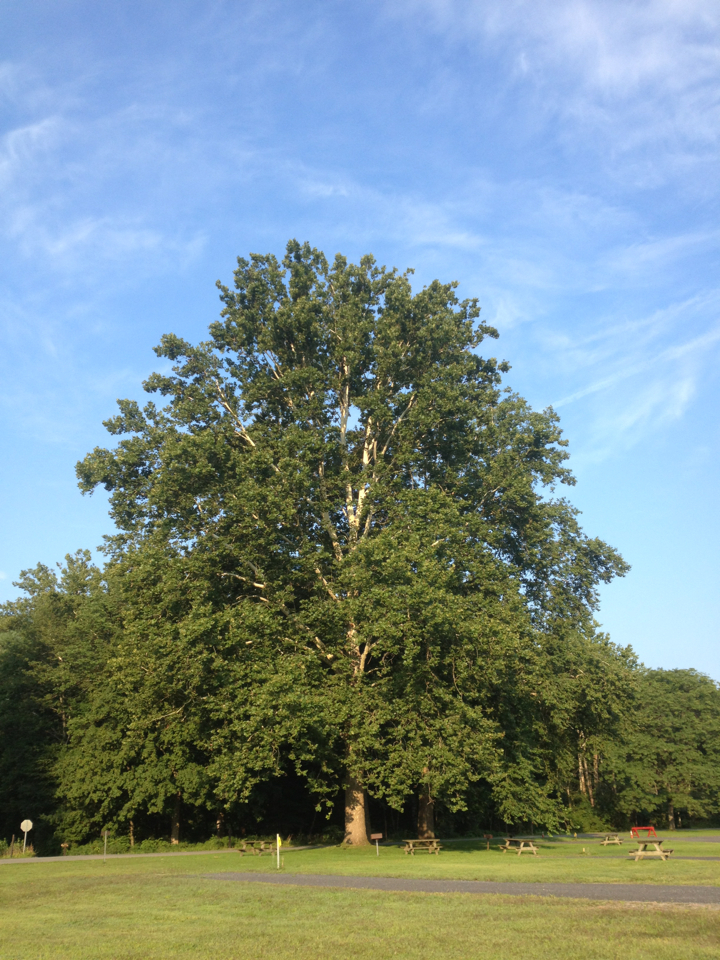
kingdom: Plantae
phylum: Tracheophyta
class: Magnoliopsida
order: Proteales
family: Platanaceae
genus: Platanus
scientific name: Platanus occidentalis
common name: American sycamore
